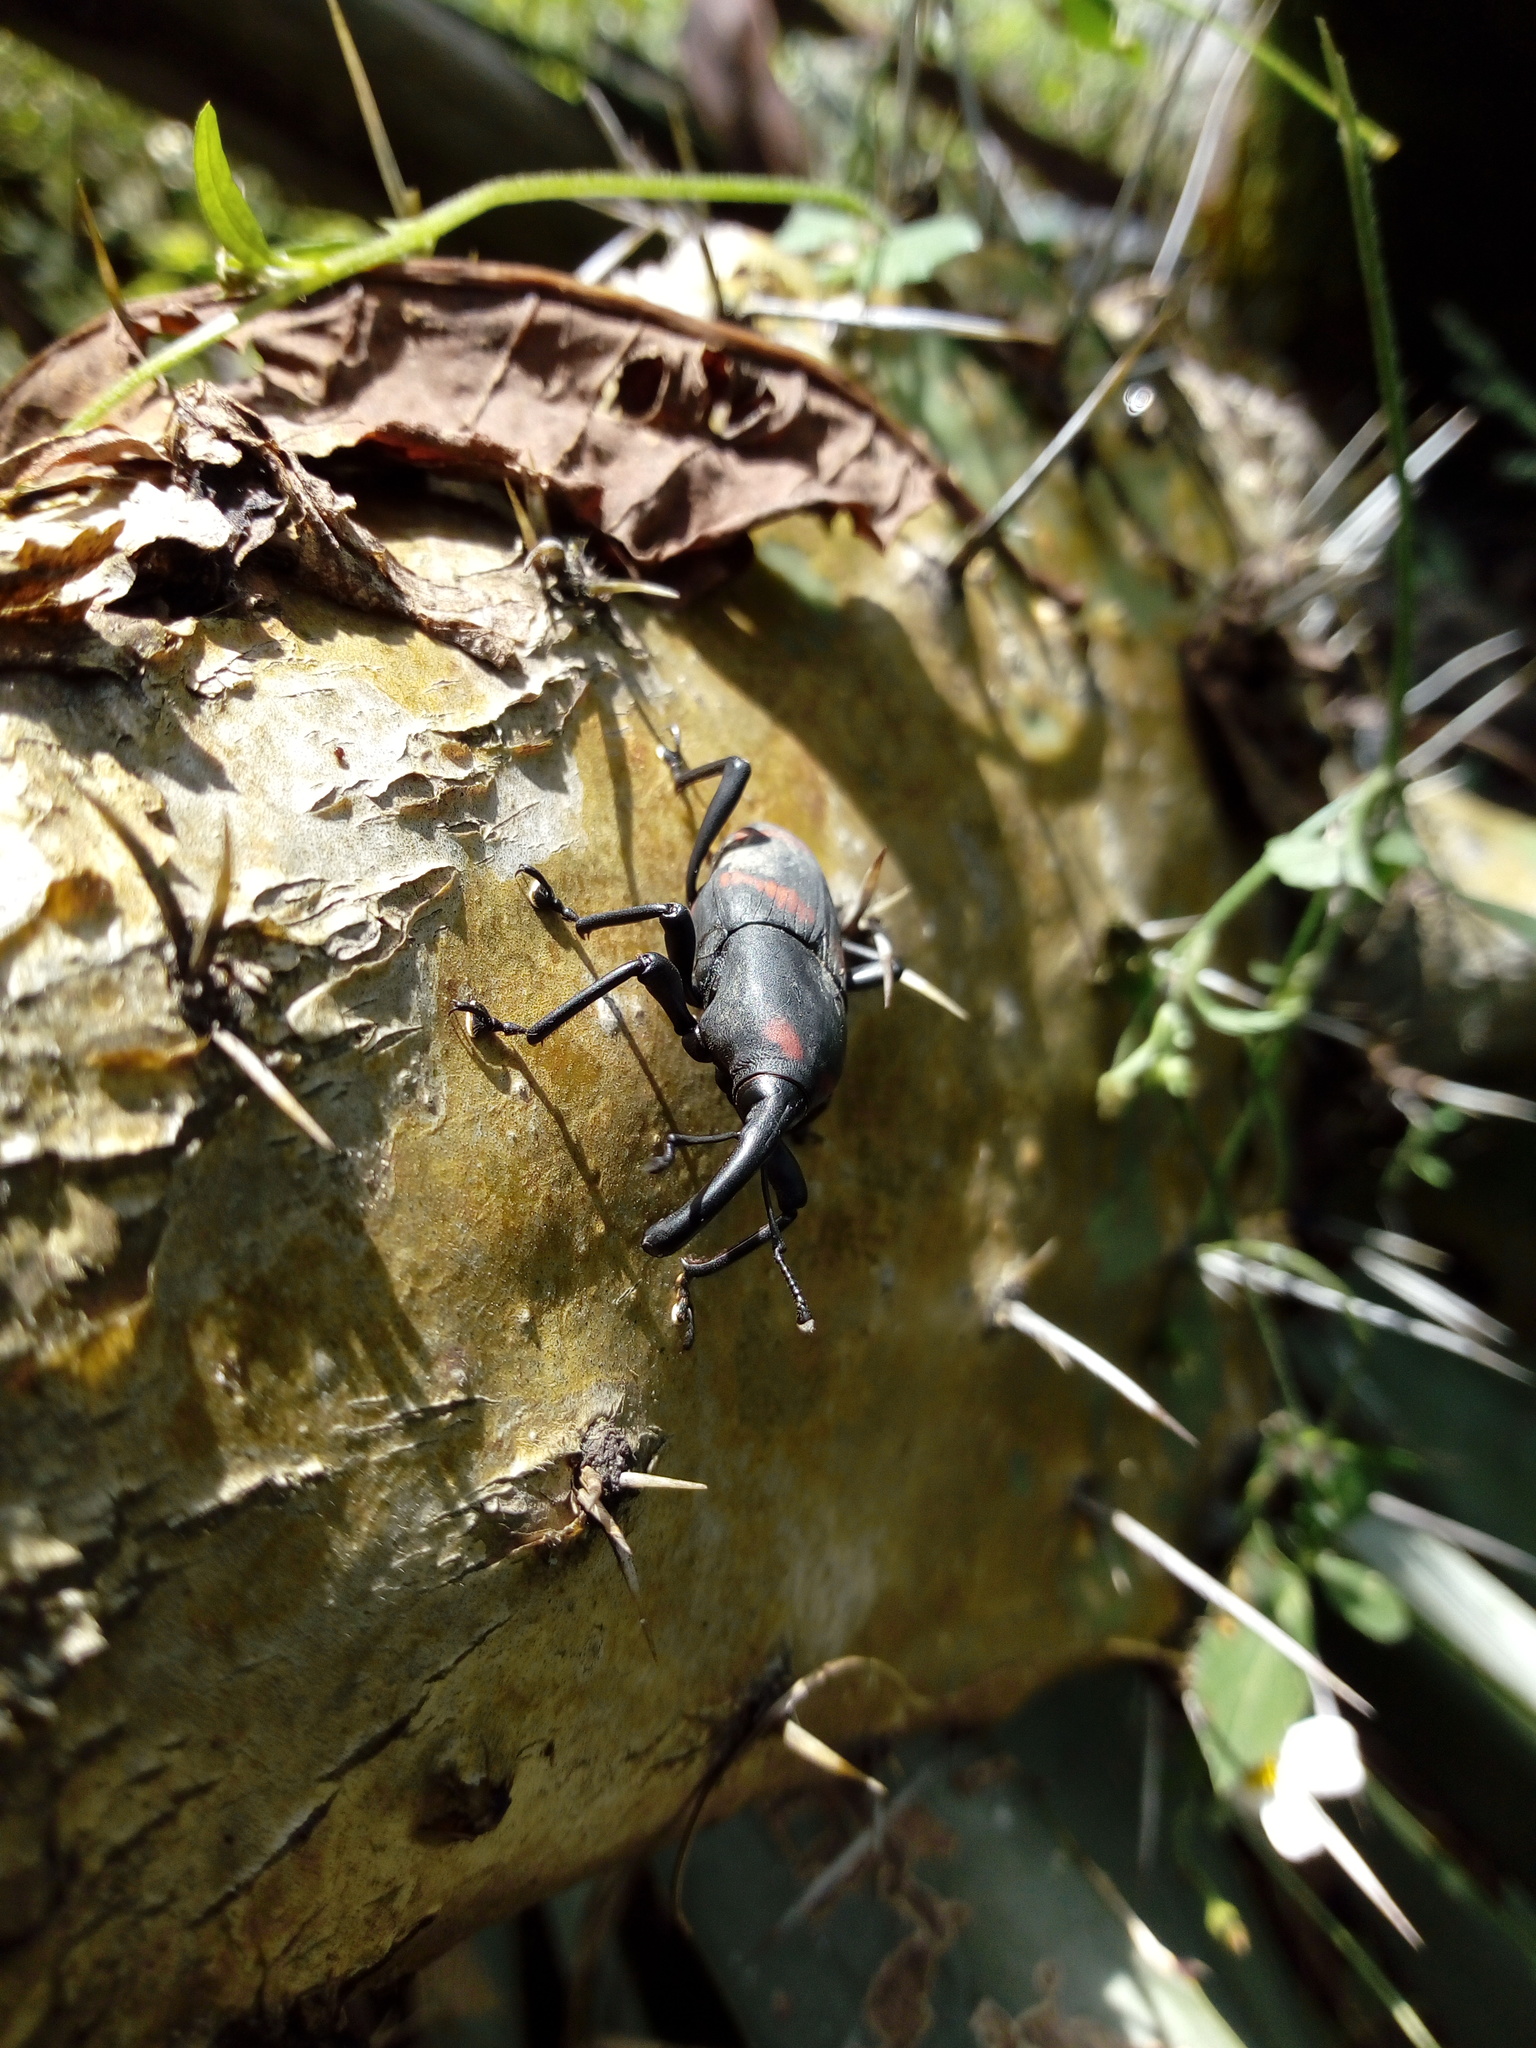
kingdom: Animalia
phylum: Arthropoda
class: Insecta
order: Coleoptera
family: Dryophthoridae
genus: Cactophagus
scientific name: Cactophagus spinolae
